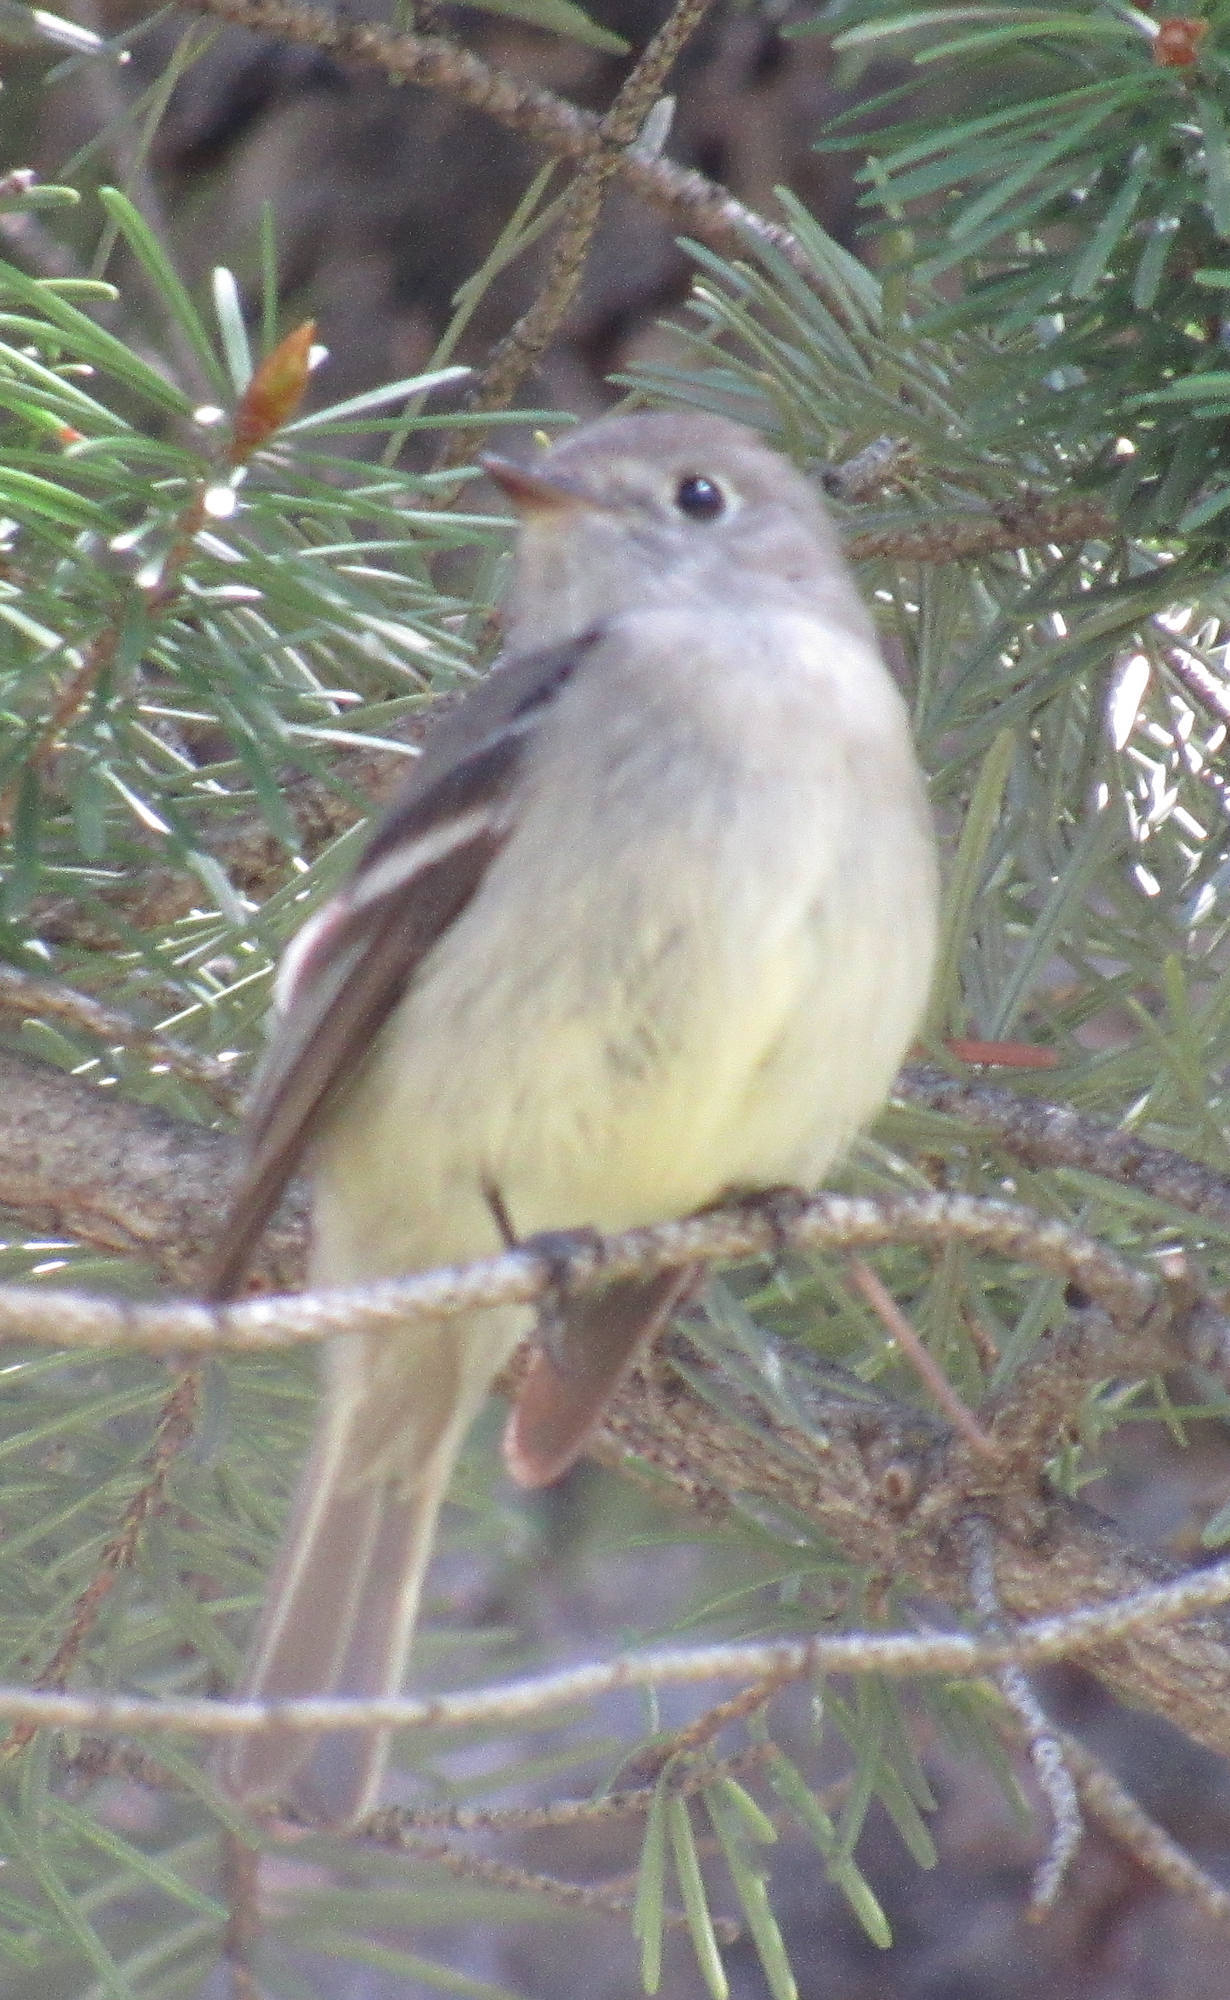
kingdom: Animalia
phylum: Chordata
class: Aves
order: Passeriformes
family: Tyrannidae
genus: Empidonax
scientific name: Empidonax hammondii
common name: Hammond's flycatcher
